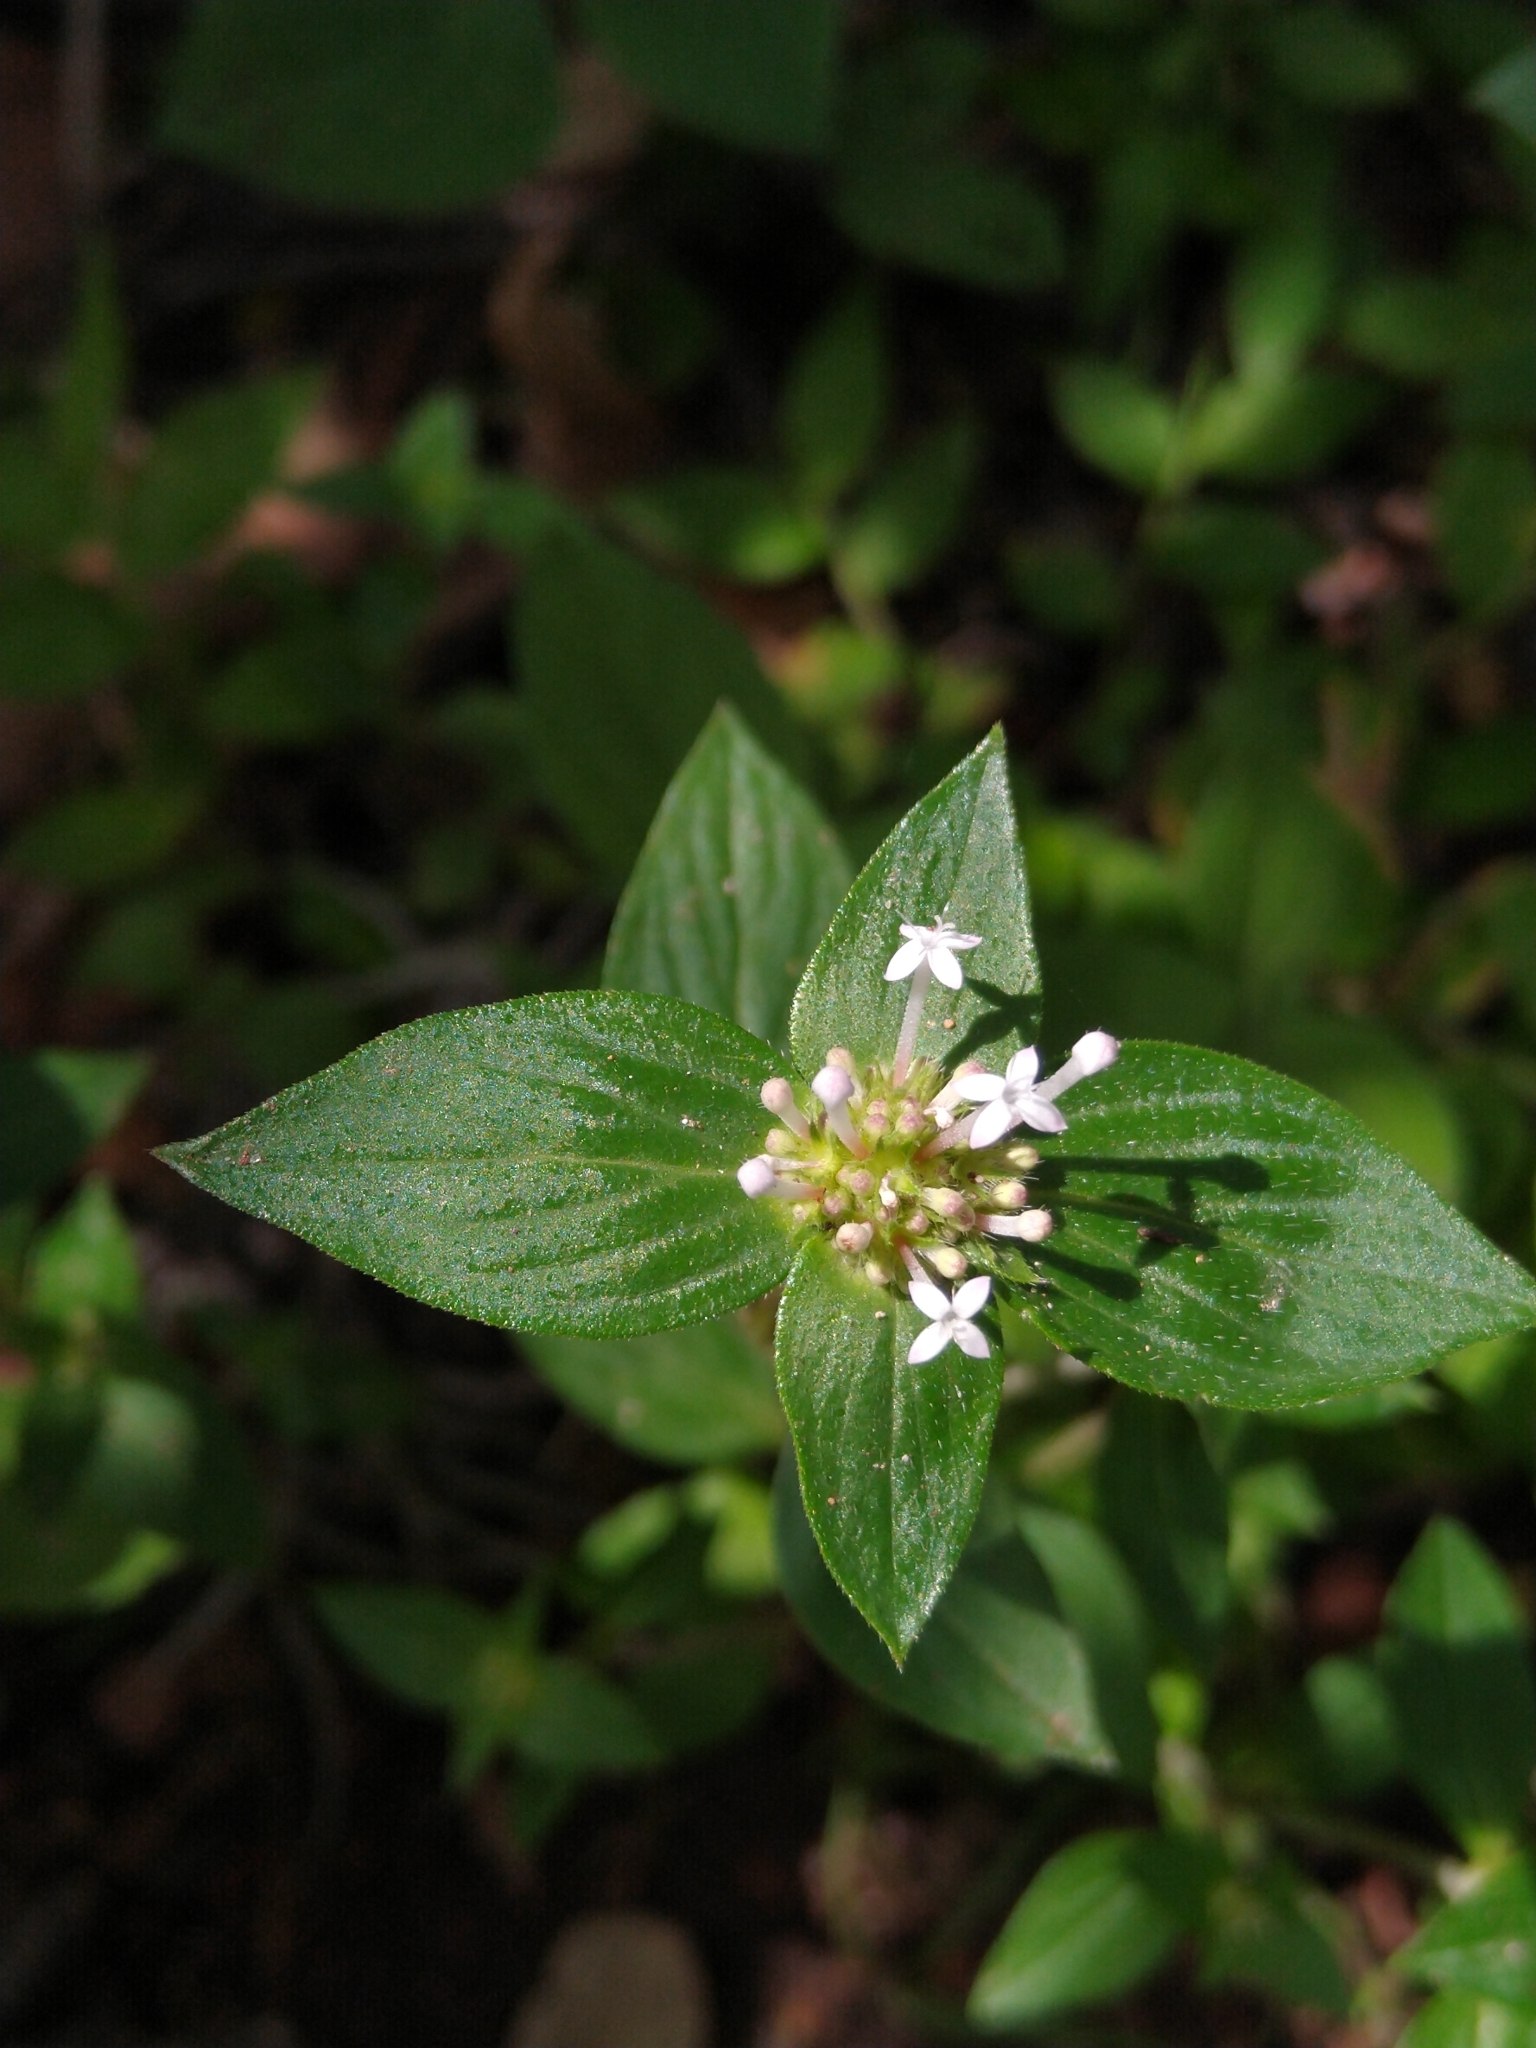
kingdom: Plantae
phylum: Tracheophyta
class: Magnoliopsida
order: Gentianales
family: Rubiaceae
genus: Crusea
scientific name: Crusea longiflora
